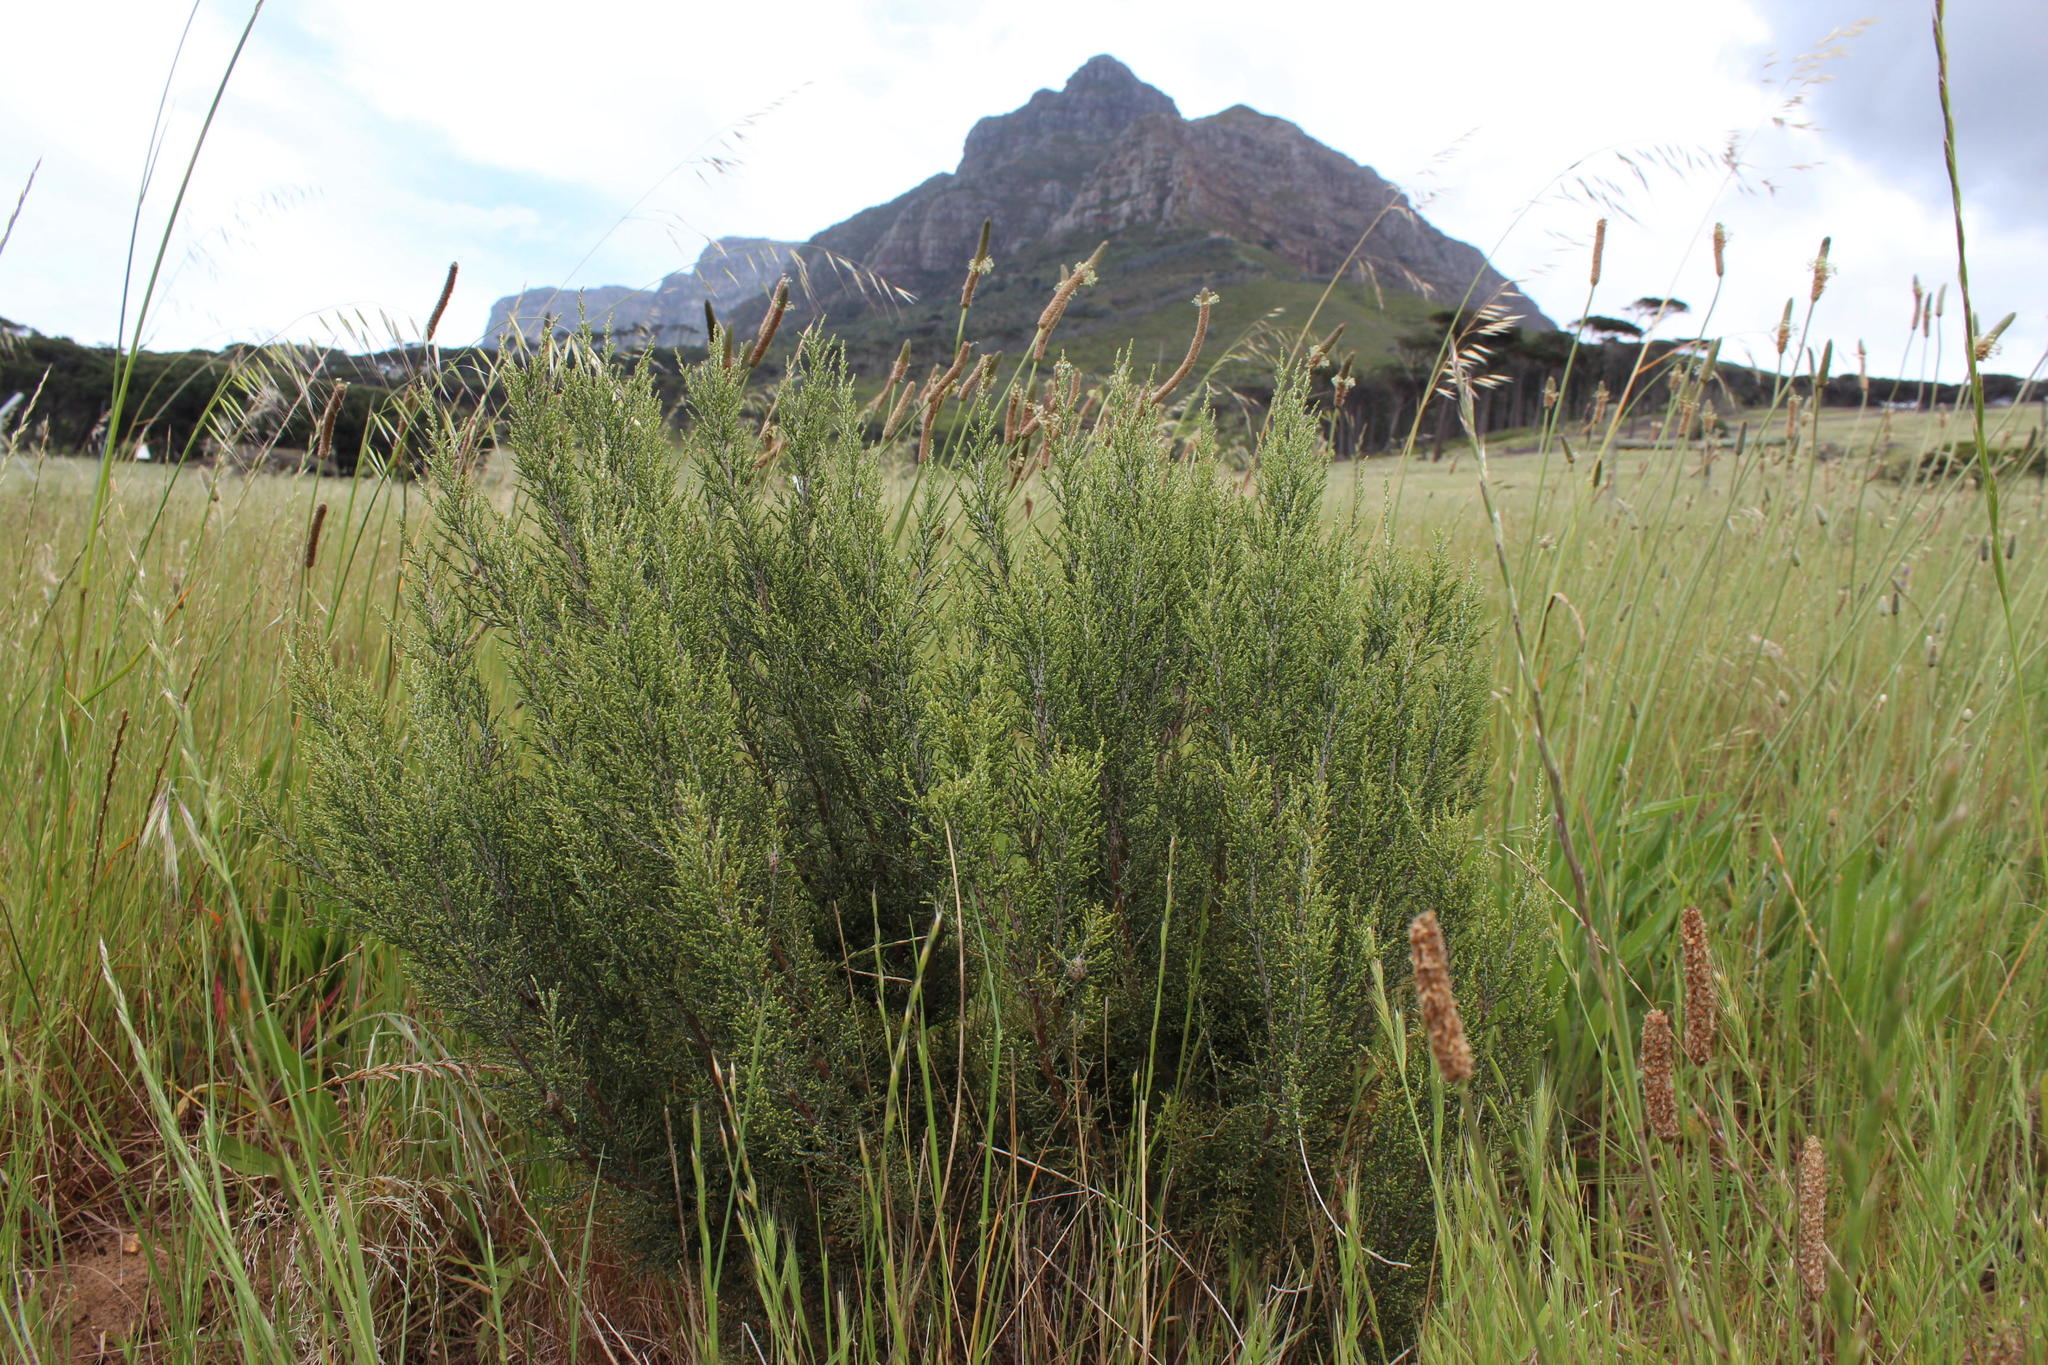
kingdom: Plantae
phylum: Tracheophyta
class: Magnoliopsida
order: Asterales
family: Asteraceae
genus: Dicerothamnus
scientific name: Dicerothamnus rhinocerotis
